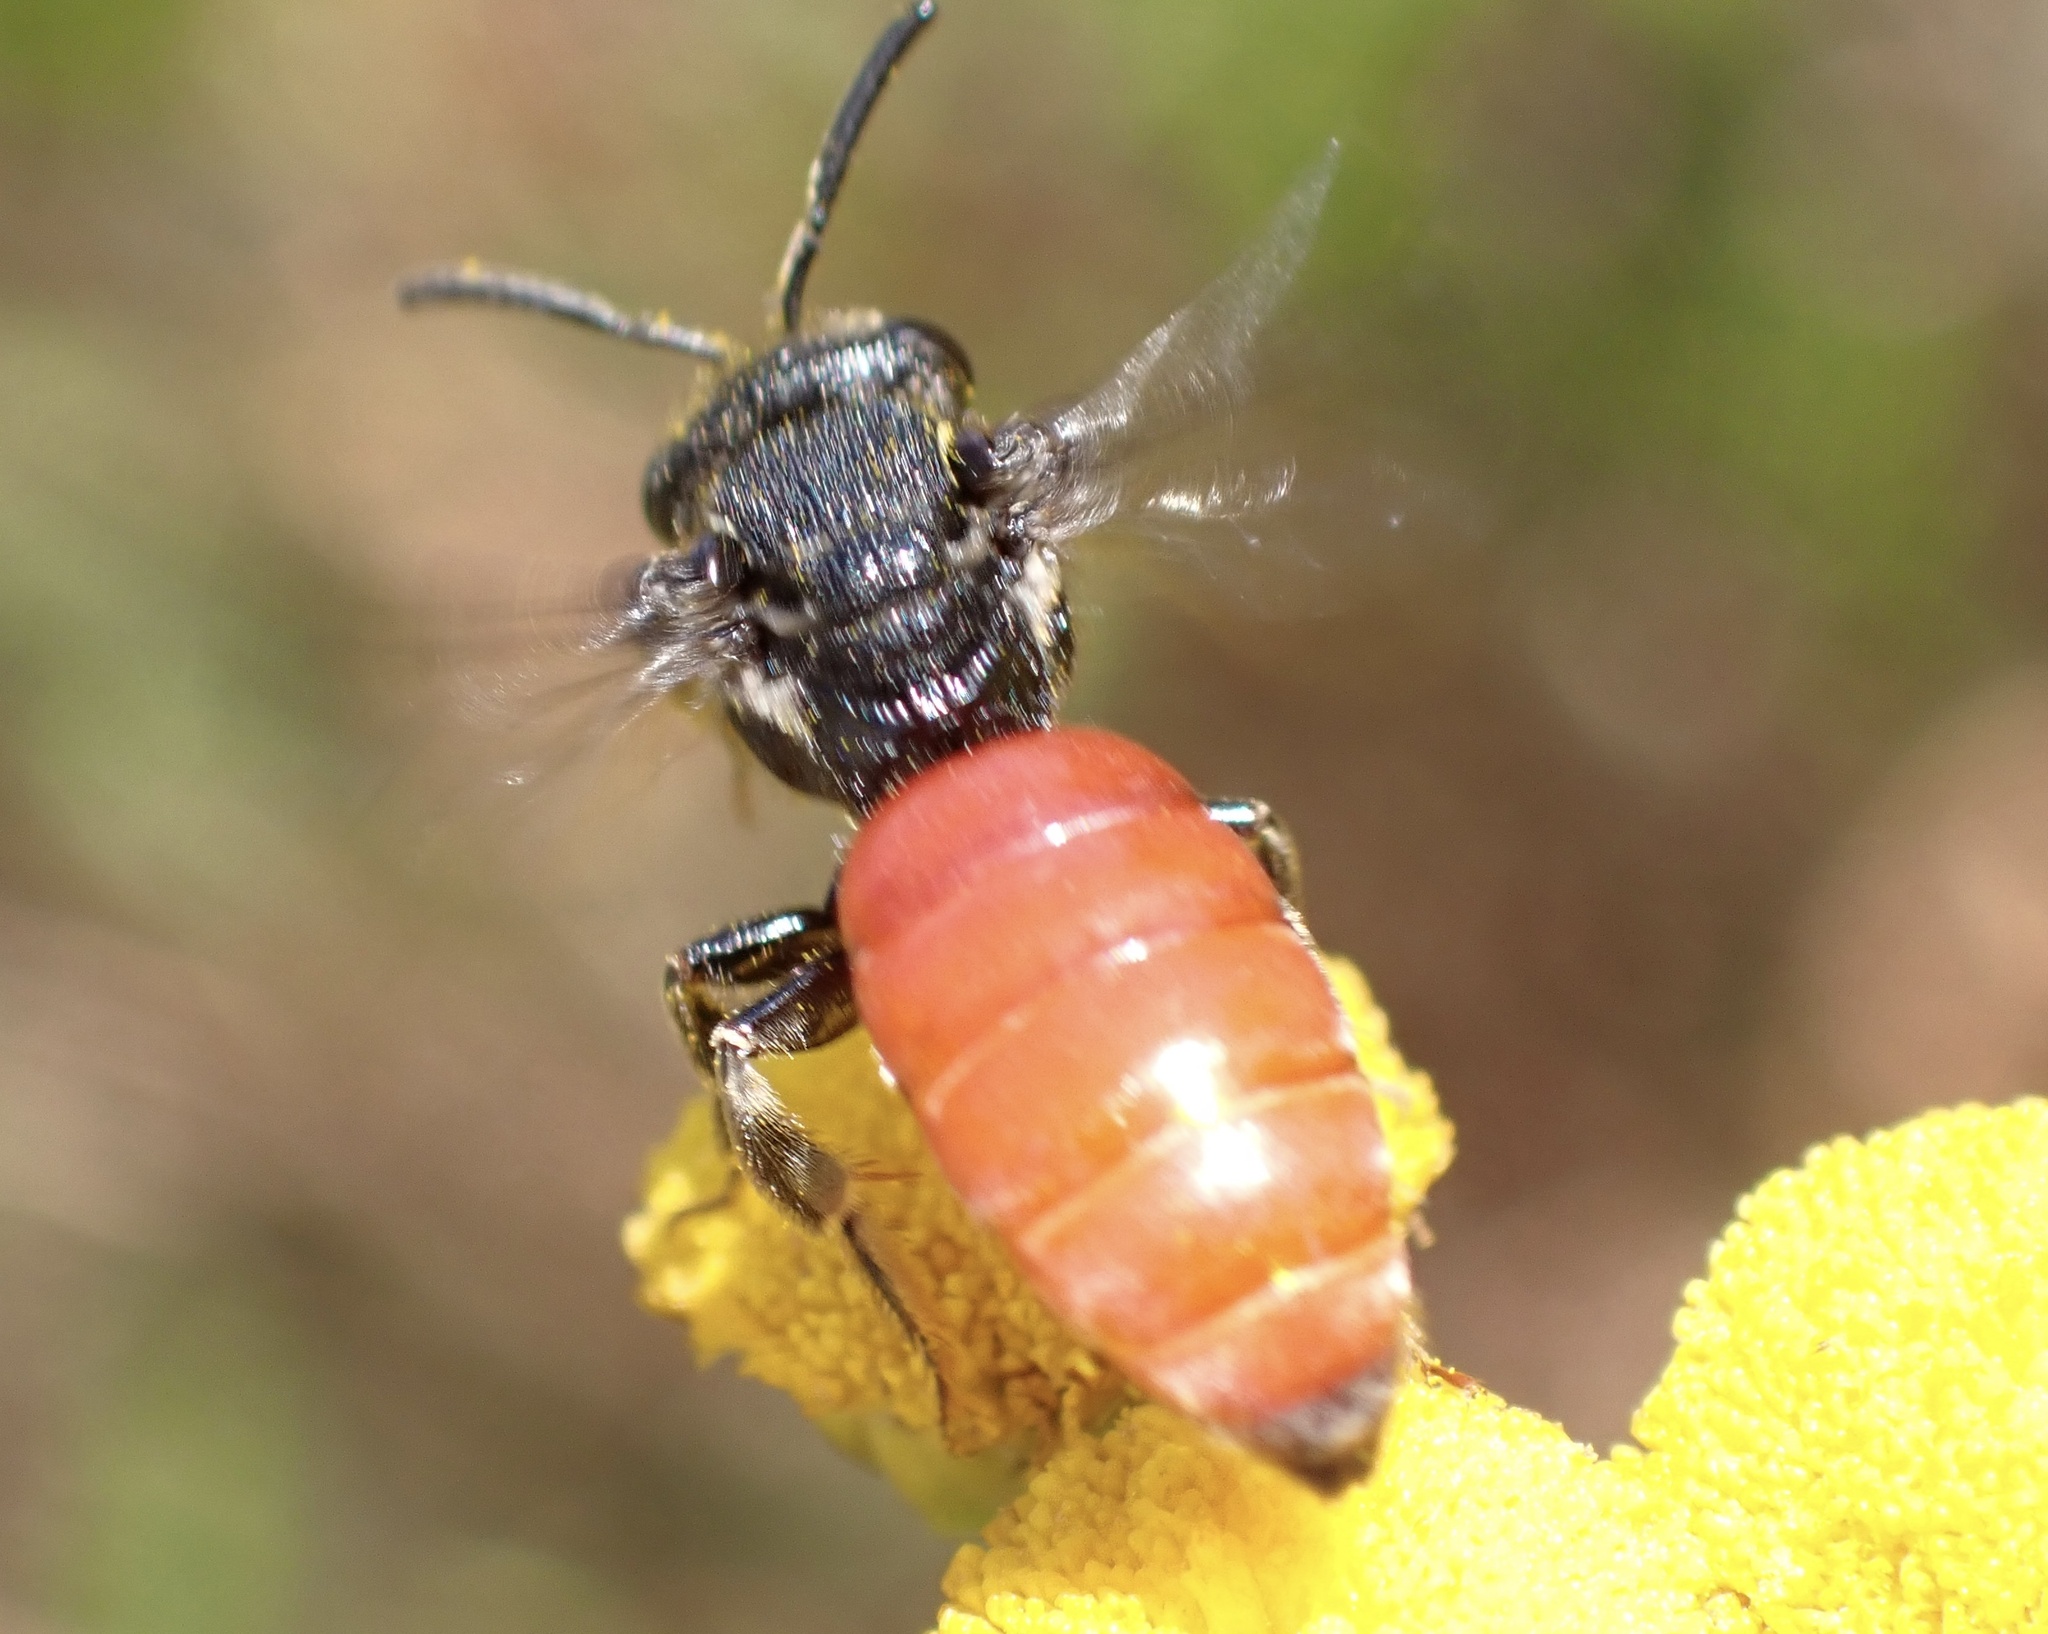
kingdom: Animalia
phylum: Arthropoda
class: Insecta
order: Hymenoptera
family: Halictidae
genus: Sphecodes
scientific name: Sphecodes albilabris
